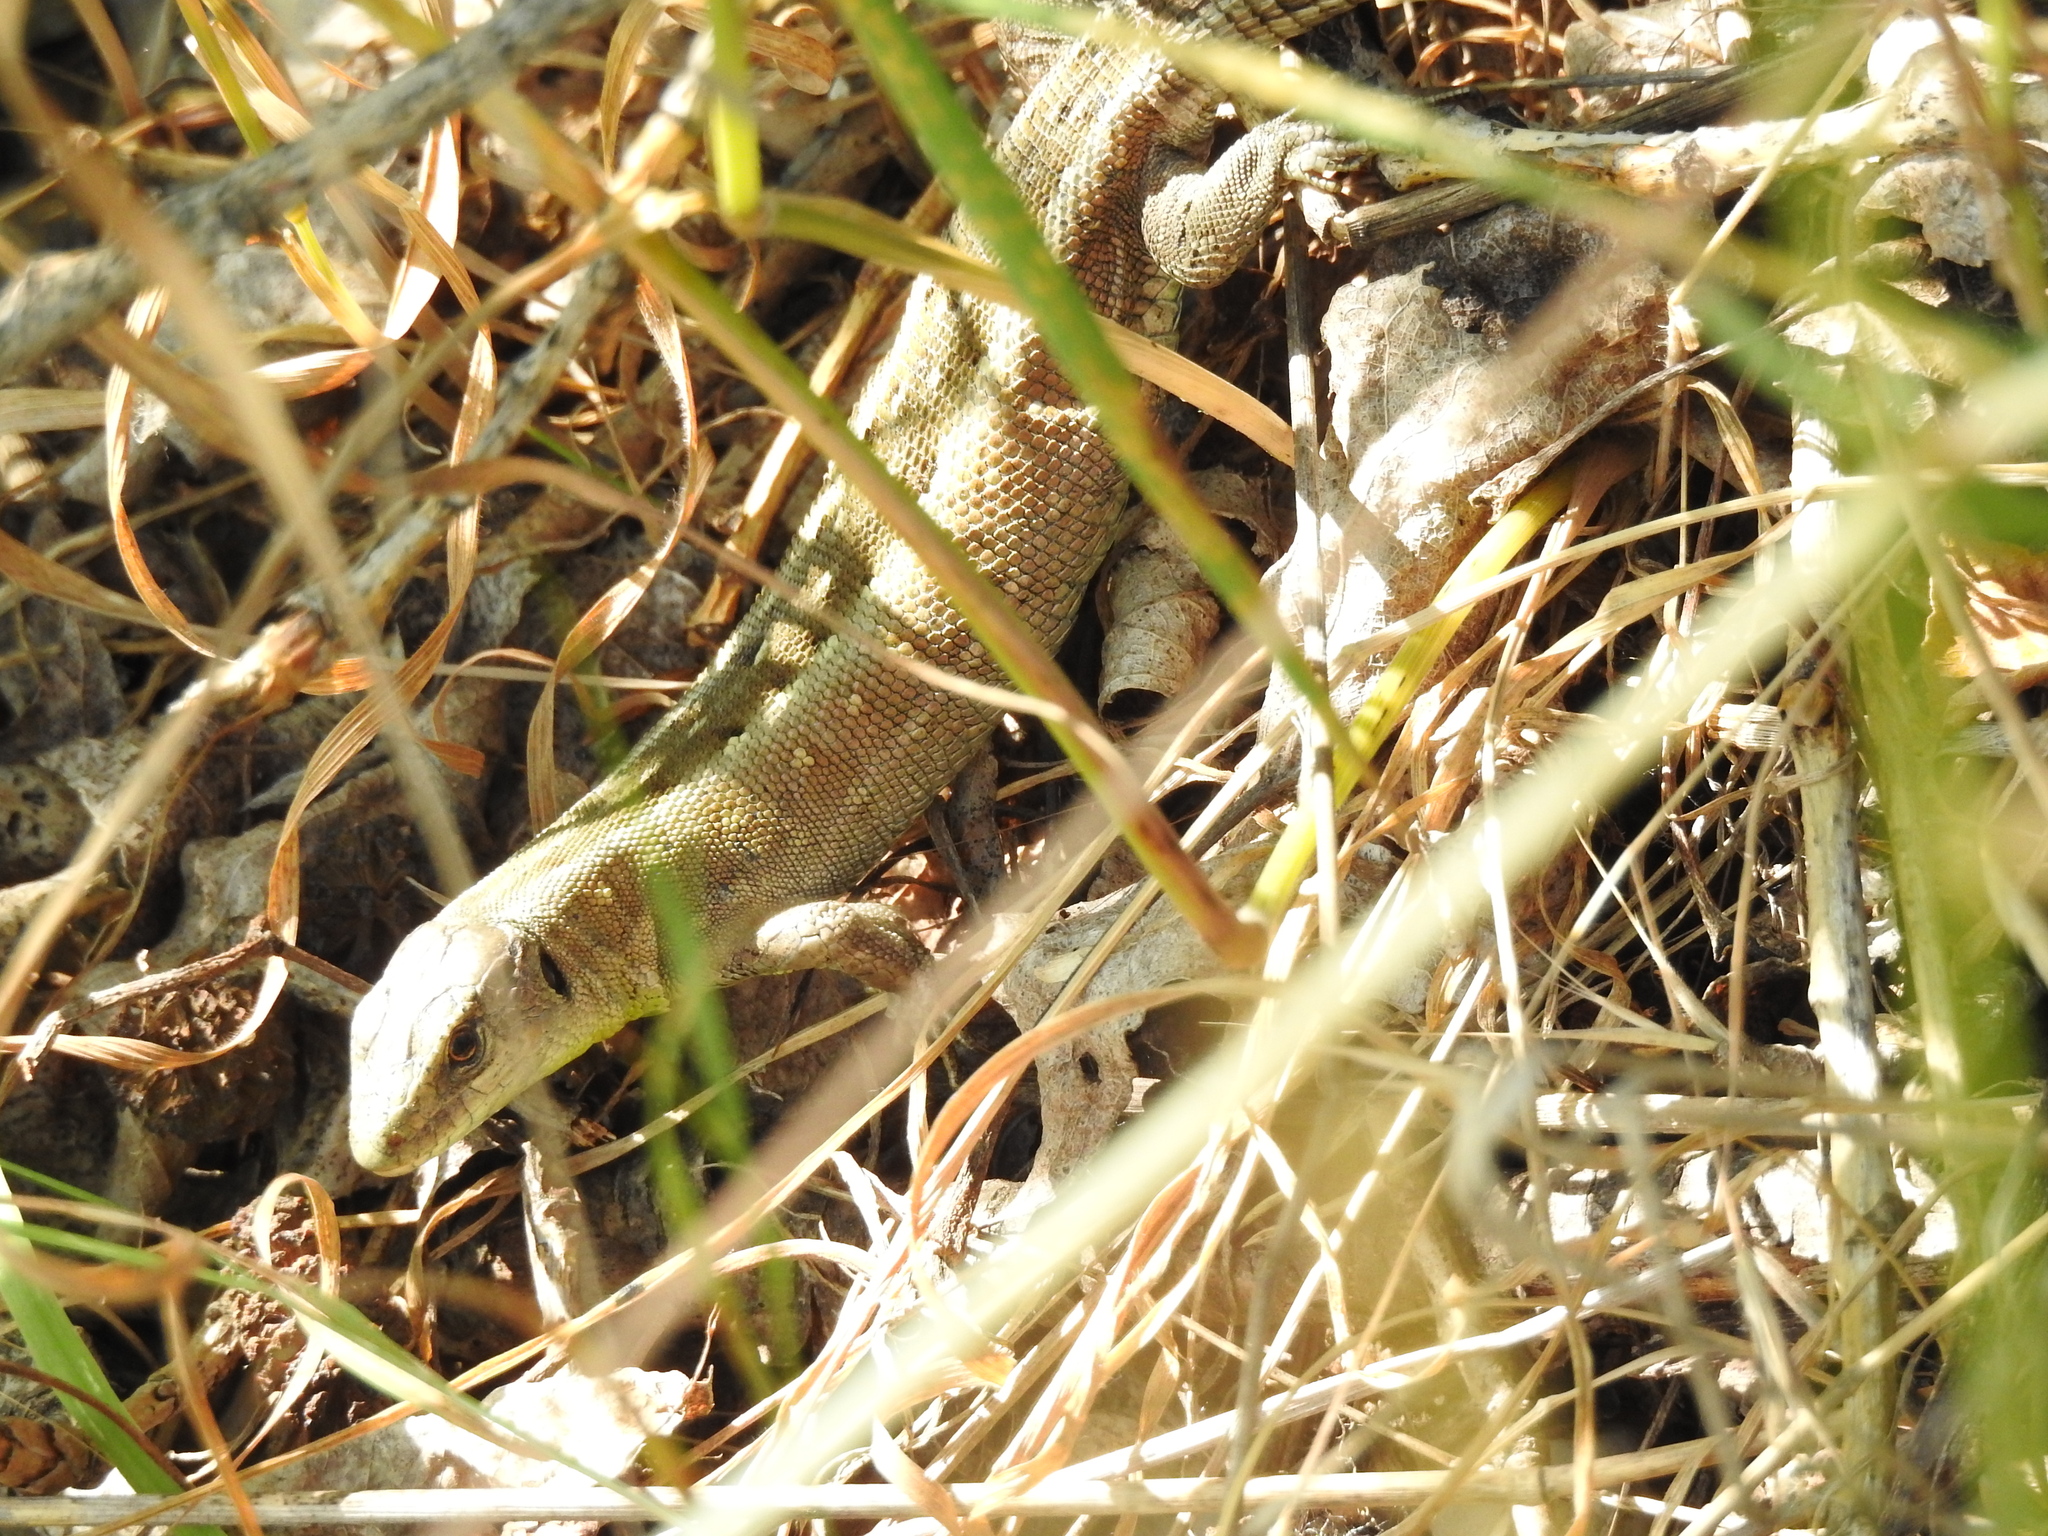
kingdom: Animalia
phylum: Chordata
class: Squamata
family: Lacertidae
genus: Lacerta
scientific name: Lacerta agilis
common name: Sand lizard
